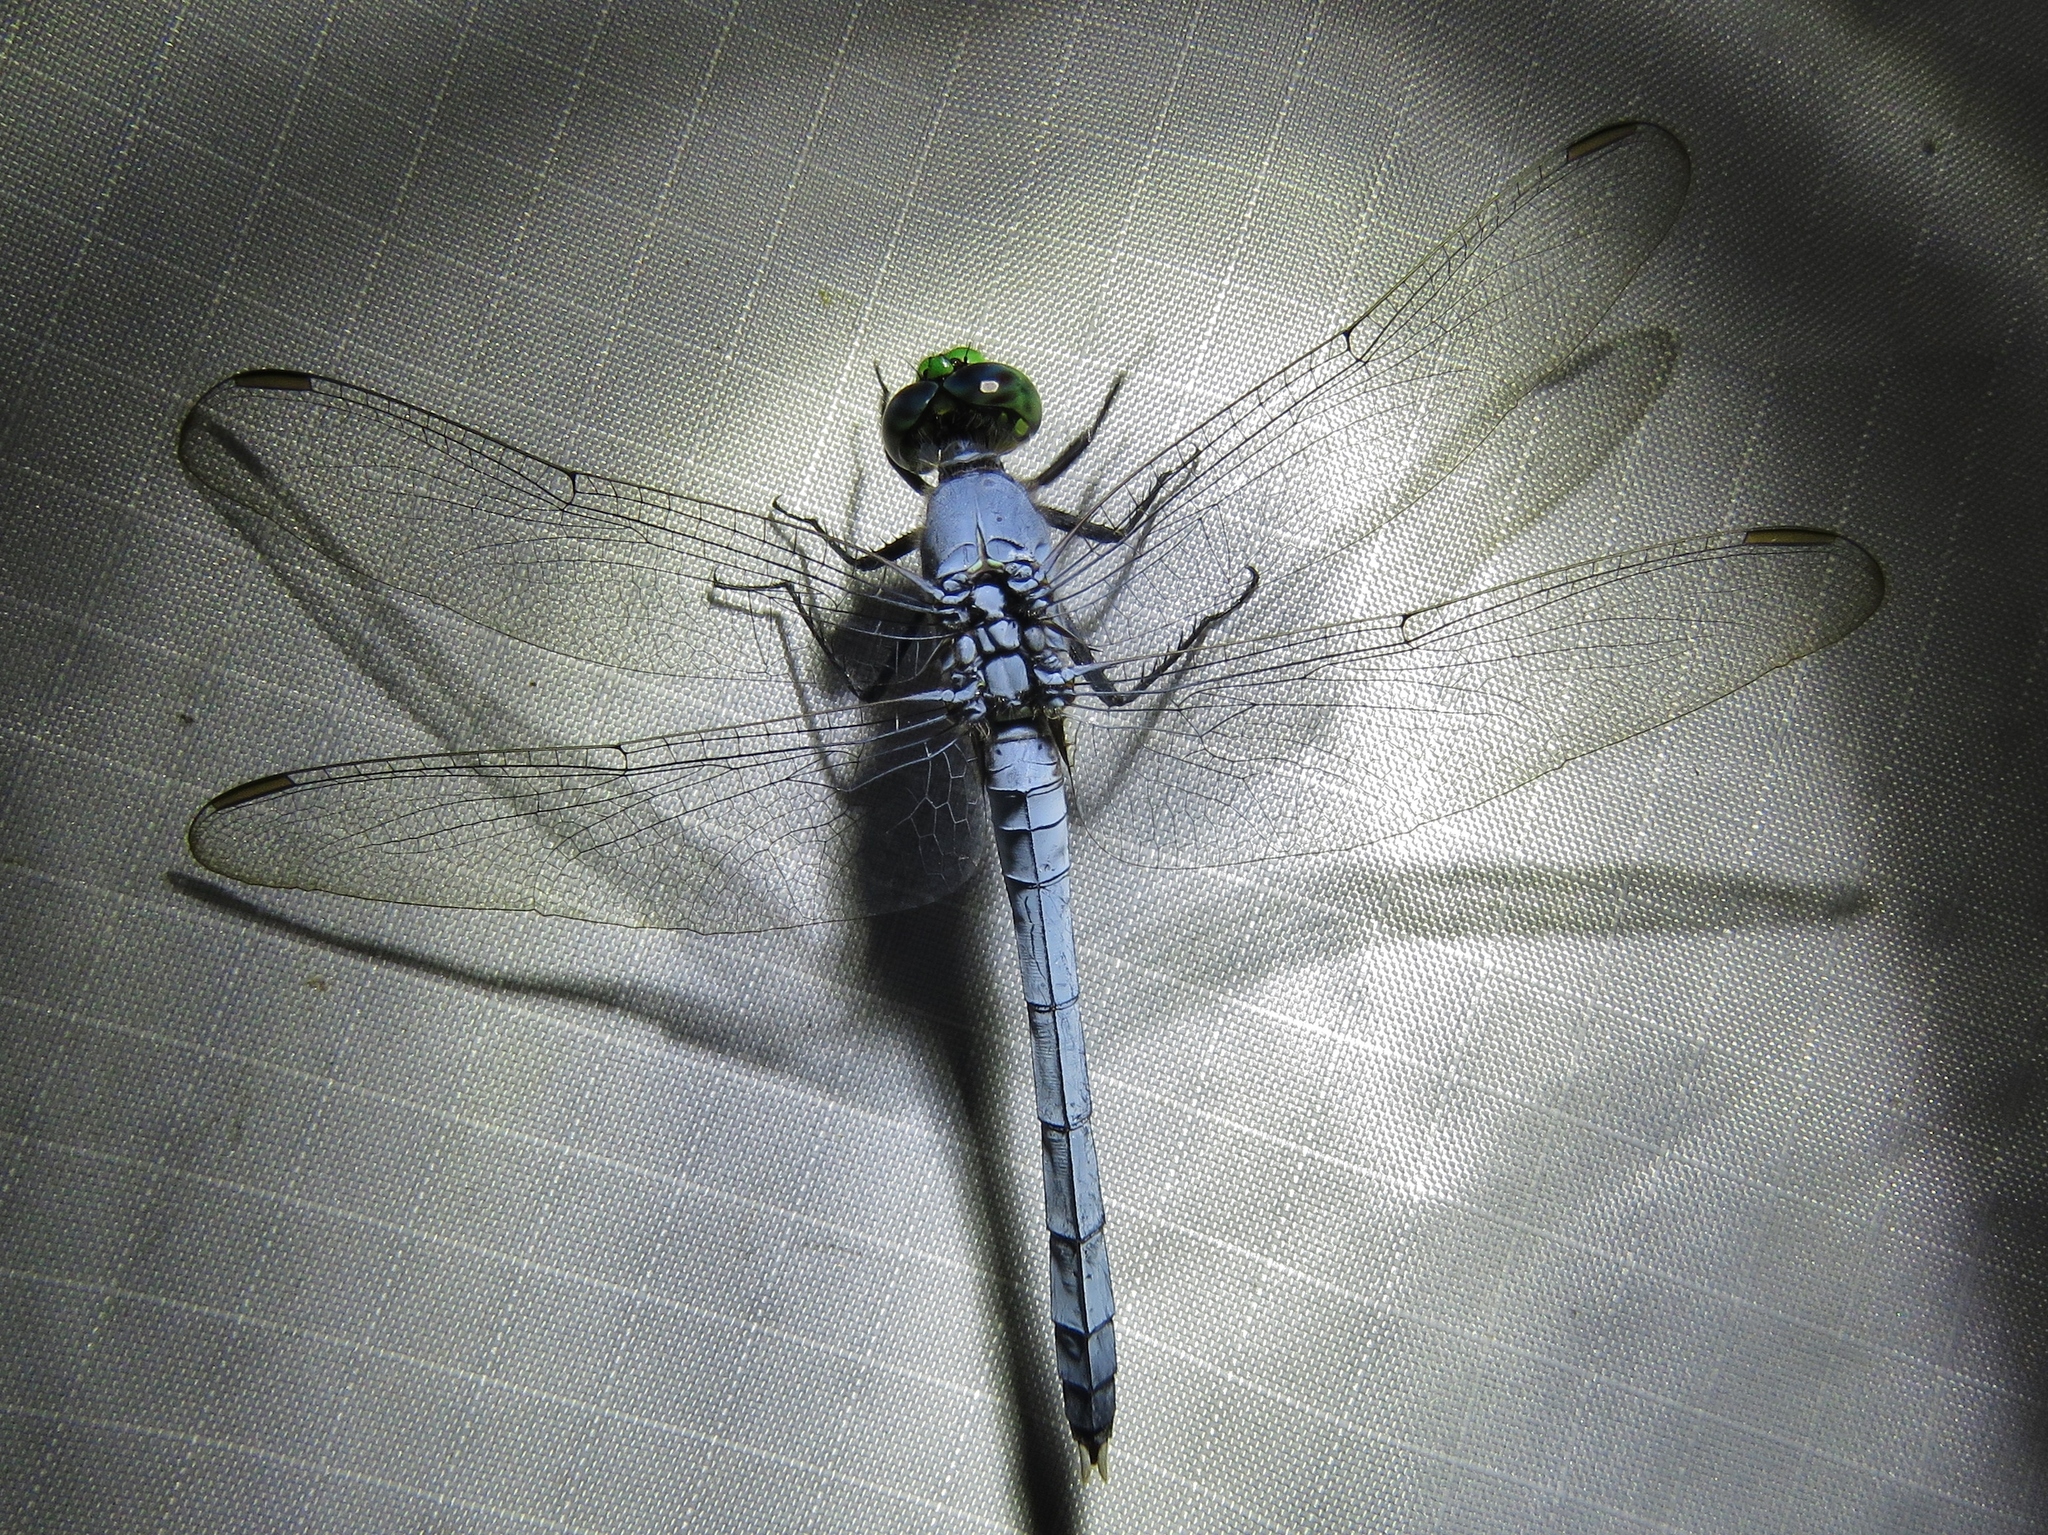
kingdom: Animalia
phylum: Arthropoda
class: Insecta
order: Odonata
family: Libellulidae
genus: Erythemis
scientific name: Erythemis simplicicollis
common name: Eastern pondhawk
